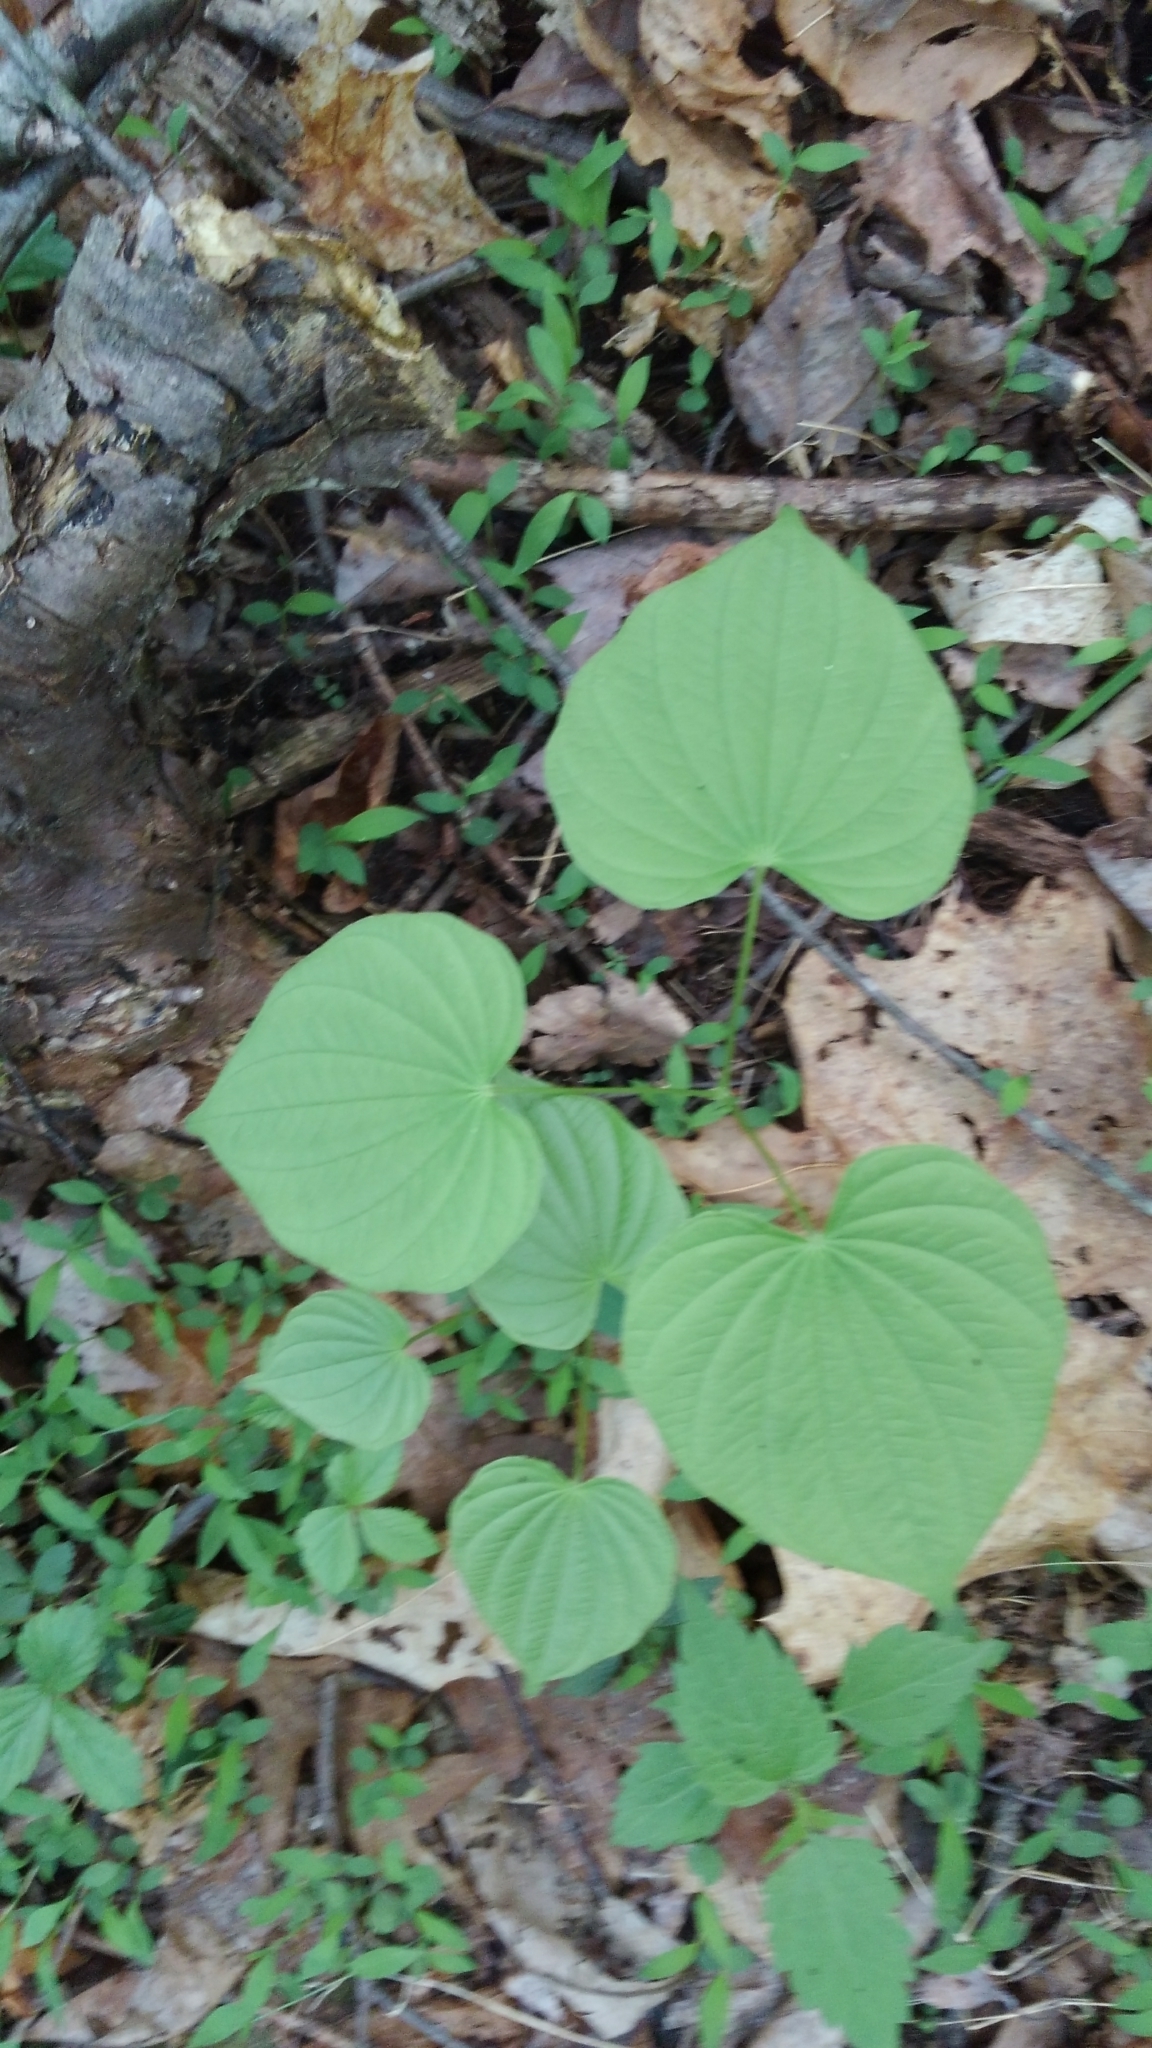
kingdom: Plantae
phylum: Tracheophyta
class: Liliopsida
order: Dioscoreales
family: Dioscoreaceae
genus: Dioscorea
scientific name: Dioscorea villosa
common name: Wild yam
